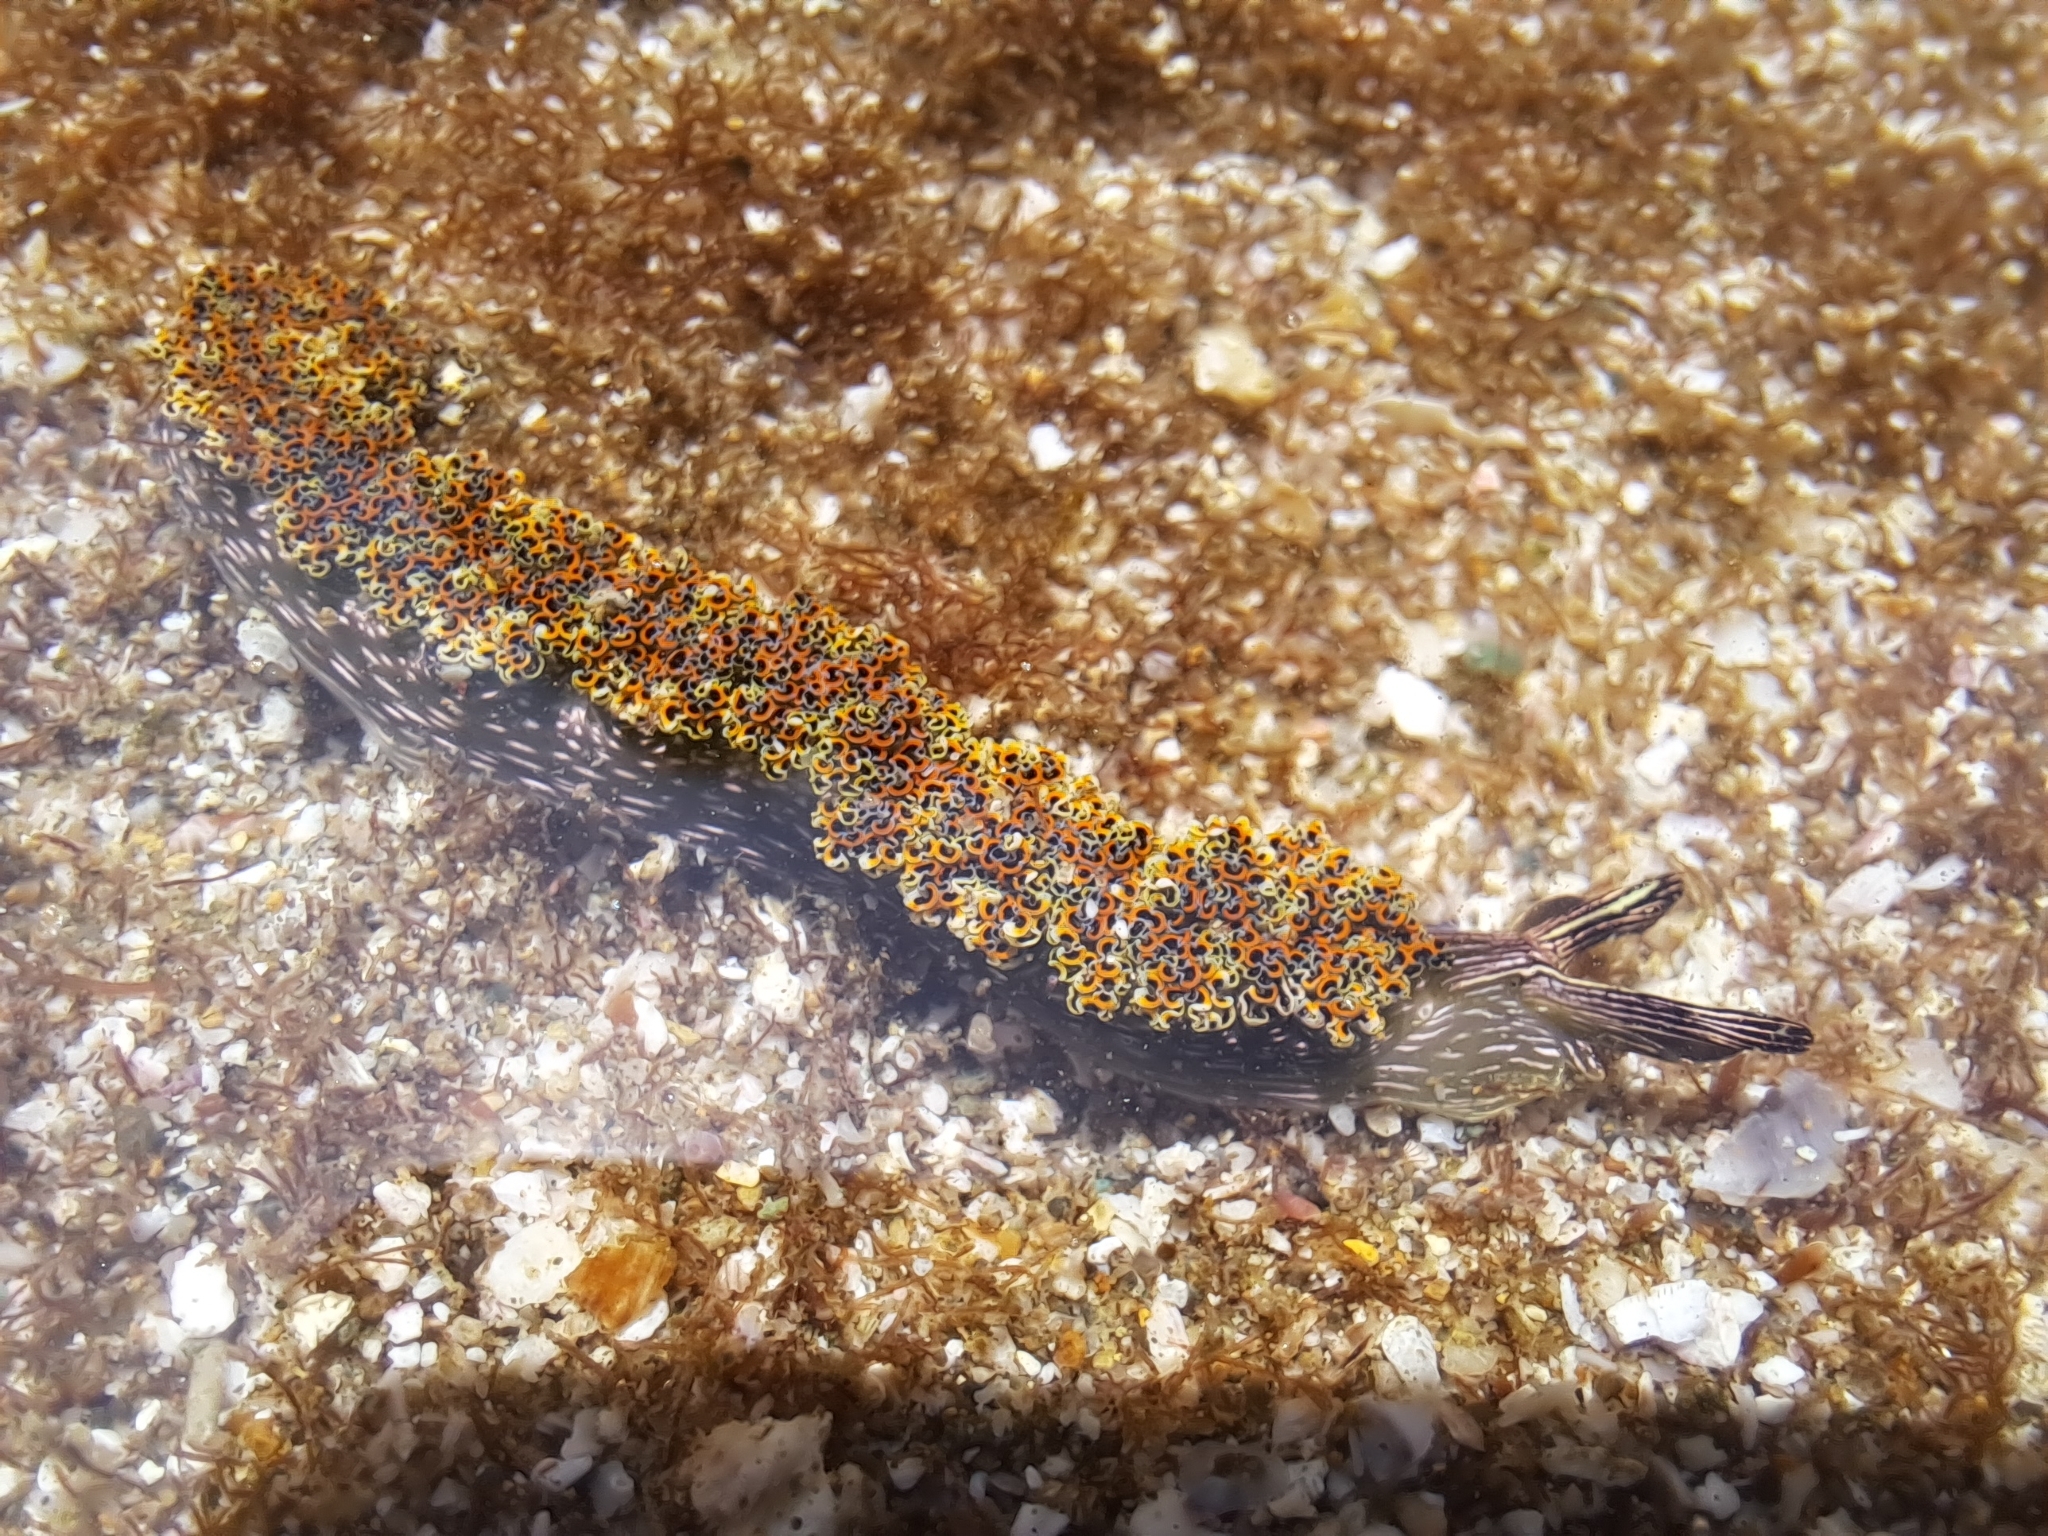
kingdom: Animalia
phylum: Mollusca
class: Gastropoda
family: Plakobranchidae
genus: Elysia
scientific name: Elysia diomedea
